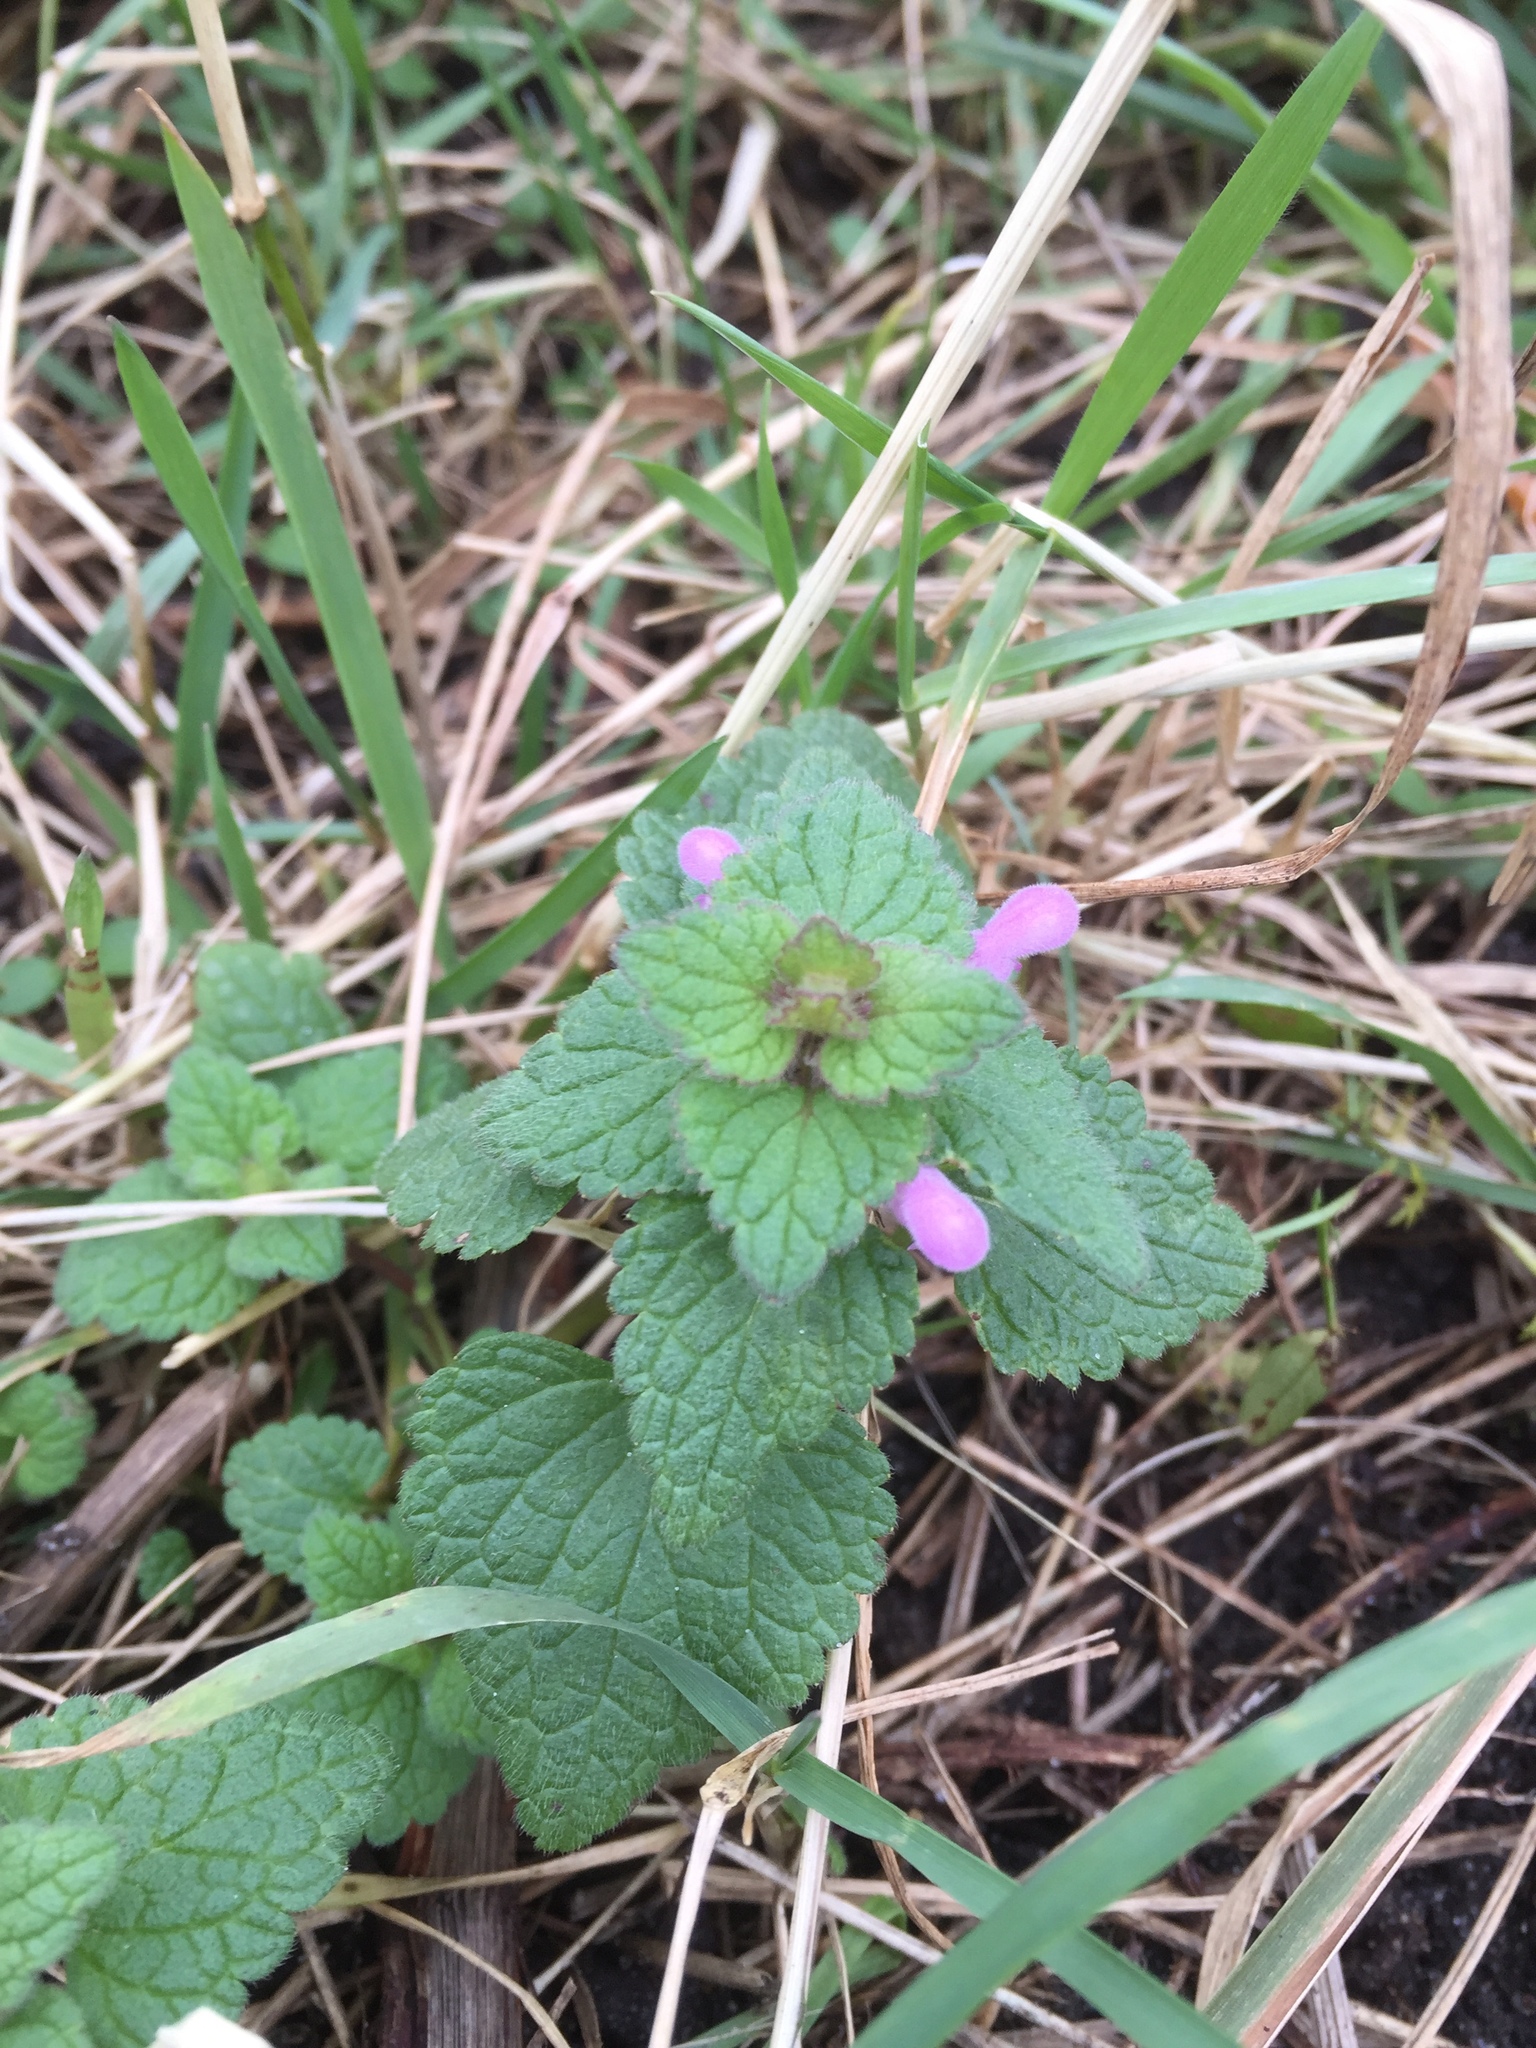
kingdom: Plantae
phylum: Tracheophyta
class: Magnoliopsida
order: Lamiales
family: Lamiaceae
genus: Lamium
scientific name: Lamium purpureum
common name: Red dead-nettle
